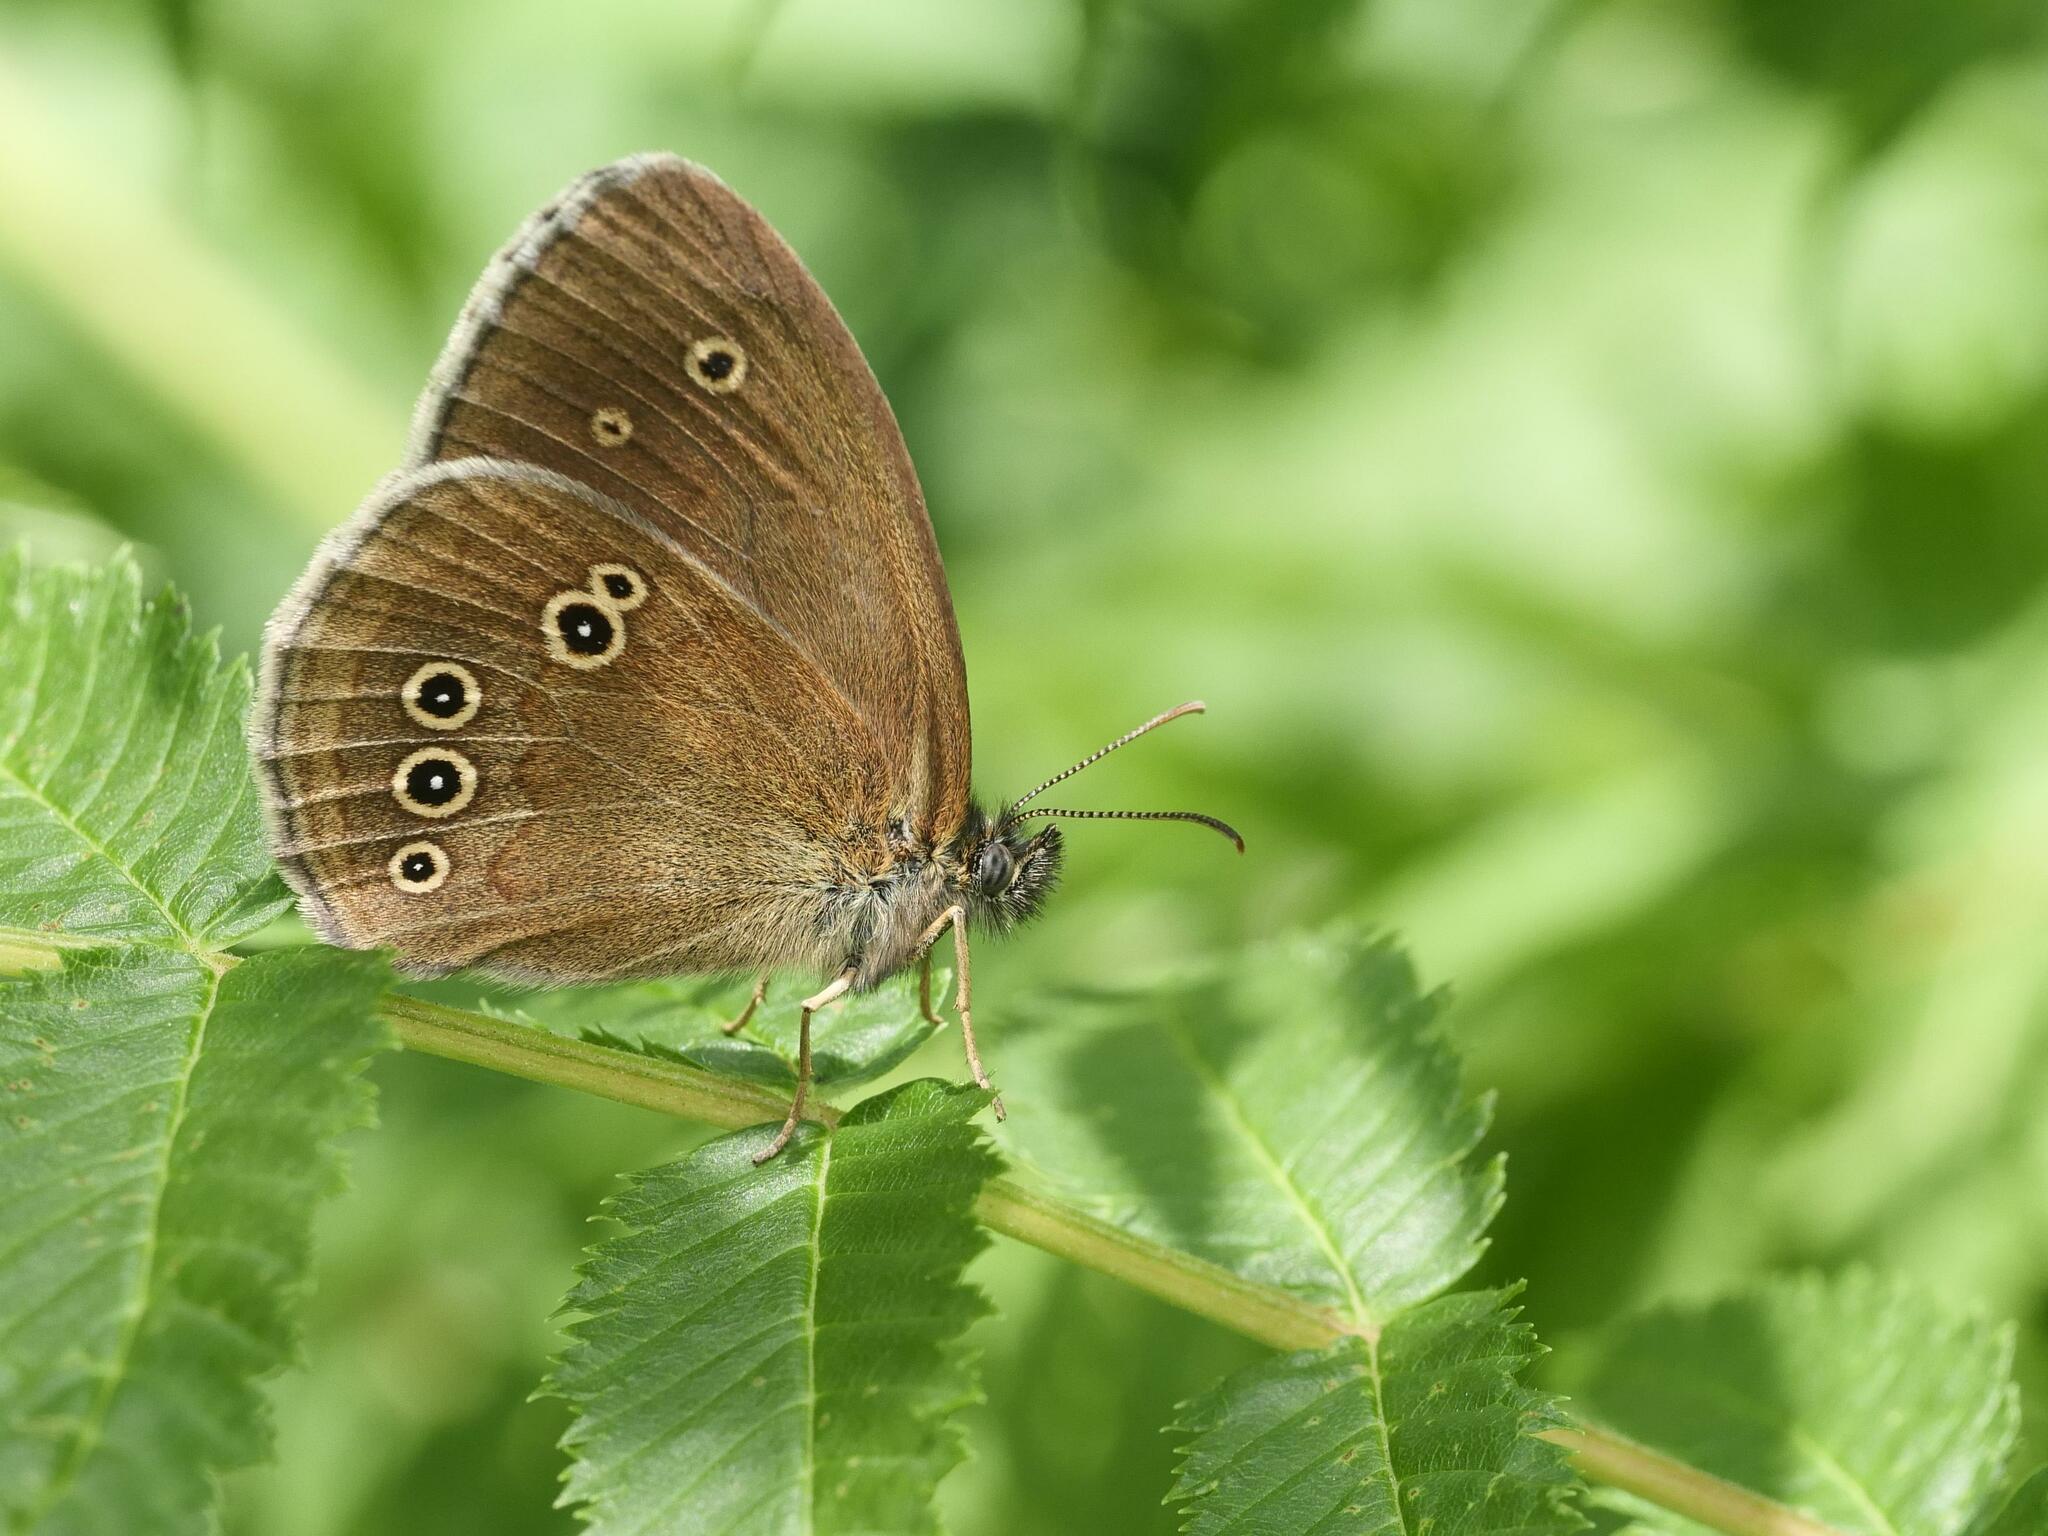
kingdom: Animalia
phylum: Arthropoda
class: Insecta
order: Lepidoptera
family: Nymphalidae
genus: Aphantopus
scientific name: Aphantopus hyperantus
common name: Ringlet
